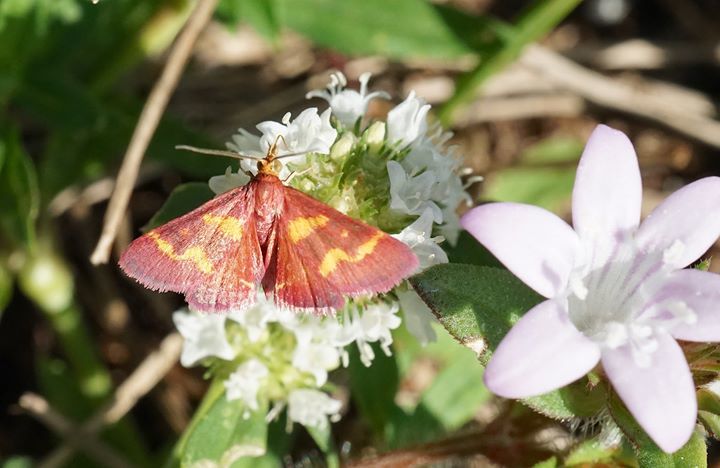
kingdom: Animalia
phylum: Arthropoda
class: Insecta
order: Lepidoptera
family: Crambidae
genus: Pyrausta
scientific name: Pyrausta tyralis
